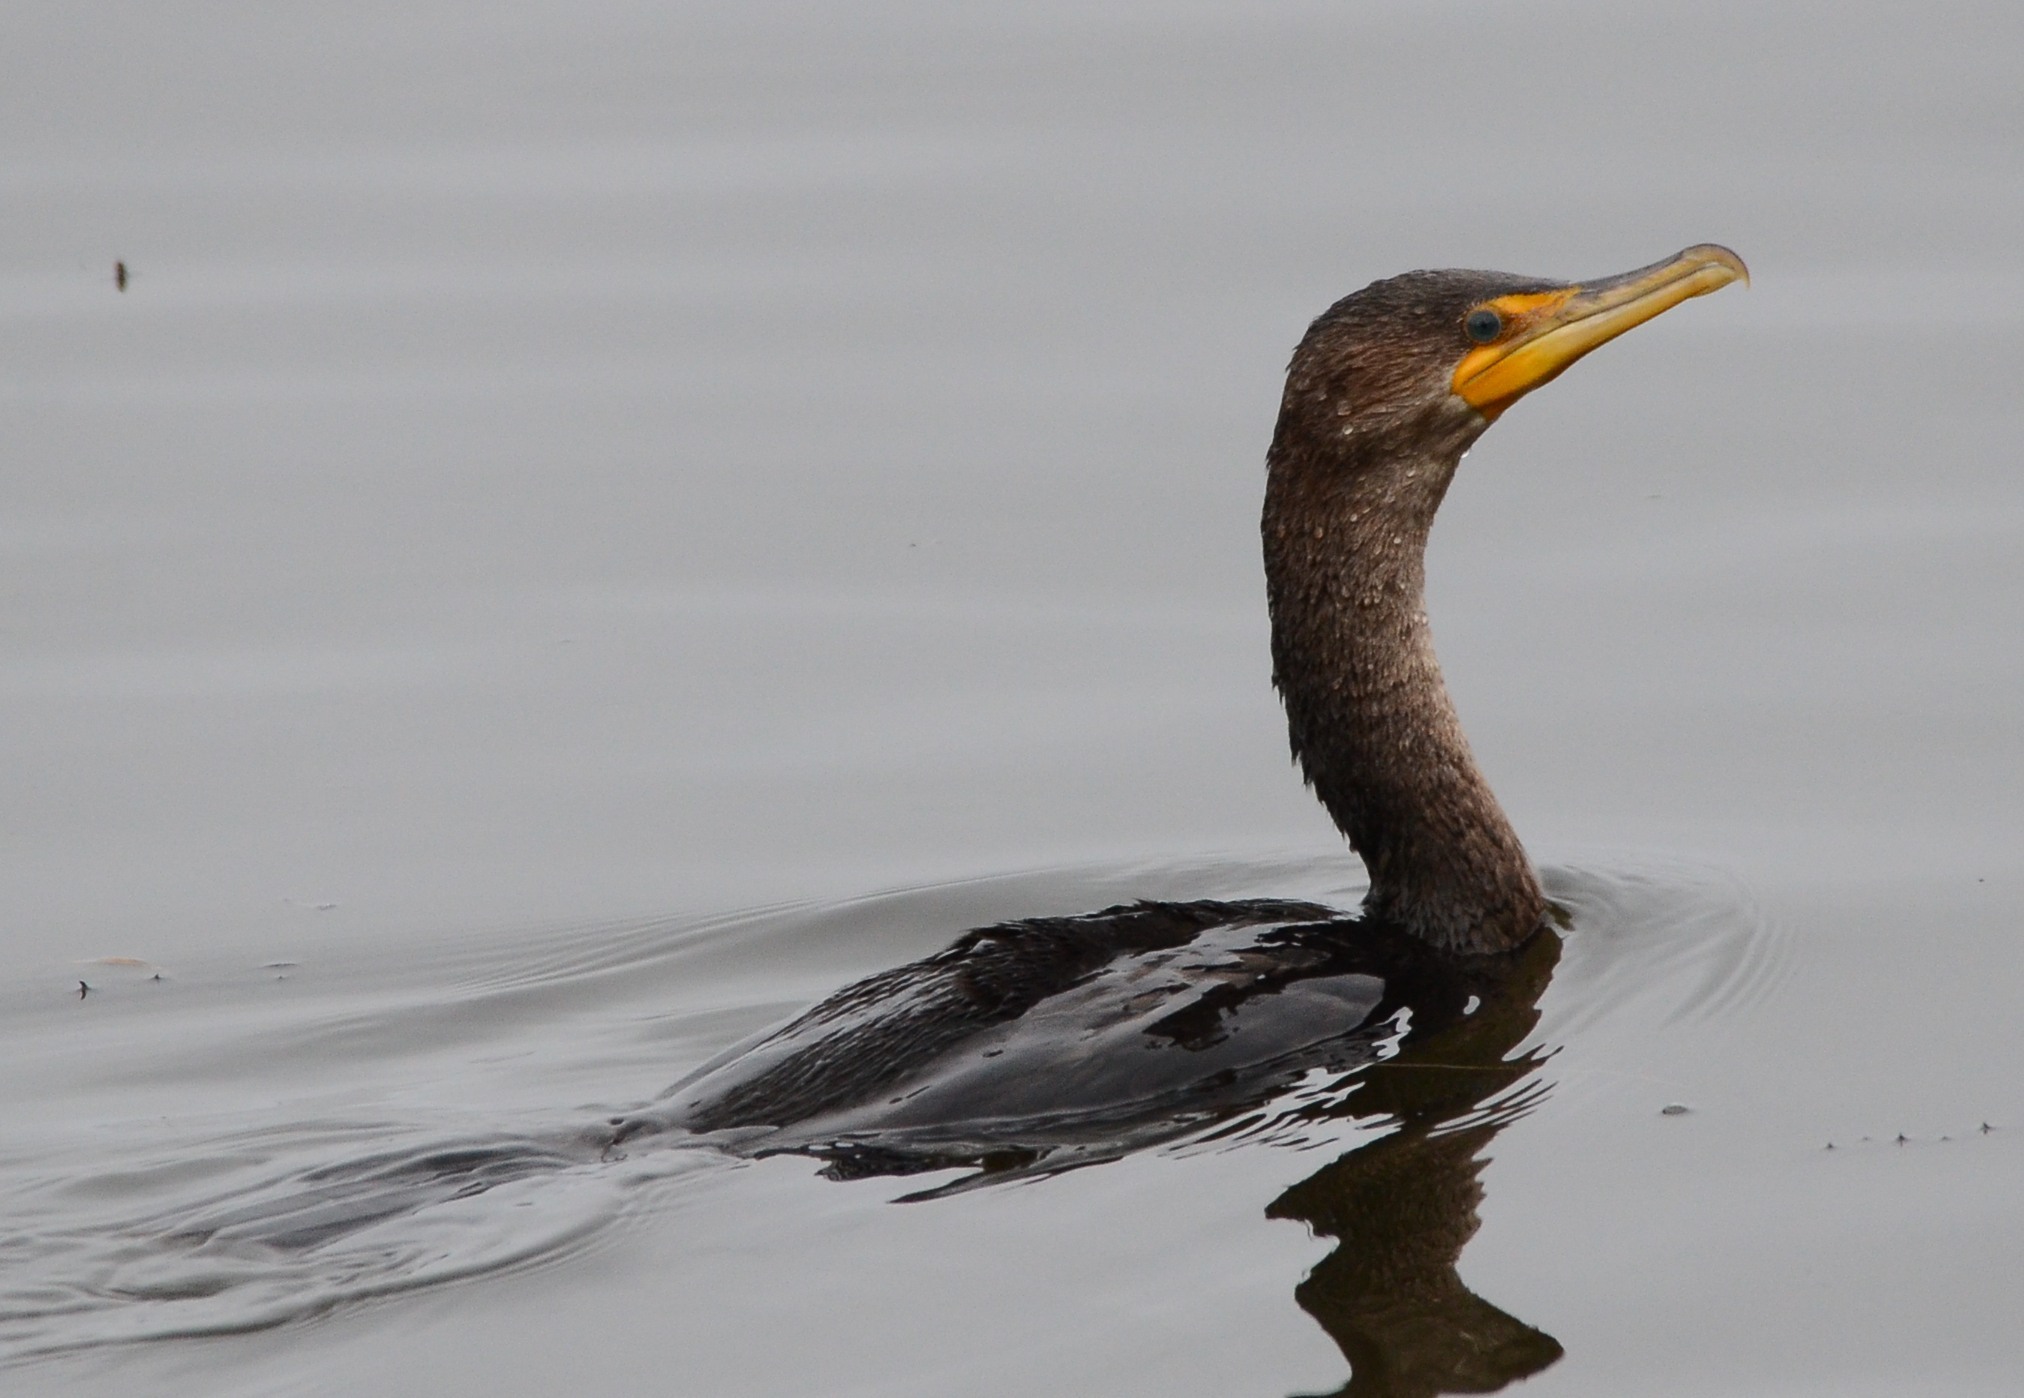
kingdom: Animalia
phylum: Chordata
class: Aves
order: Suliformes
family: Phalacrocoracidae
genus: Phalacrocorax
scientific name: Phalacrocorax auritus
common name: Double-crested cormorant
